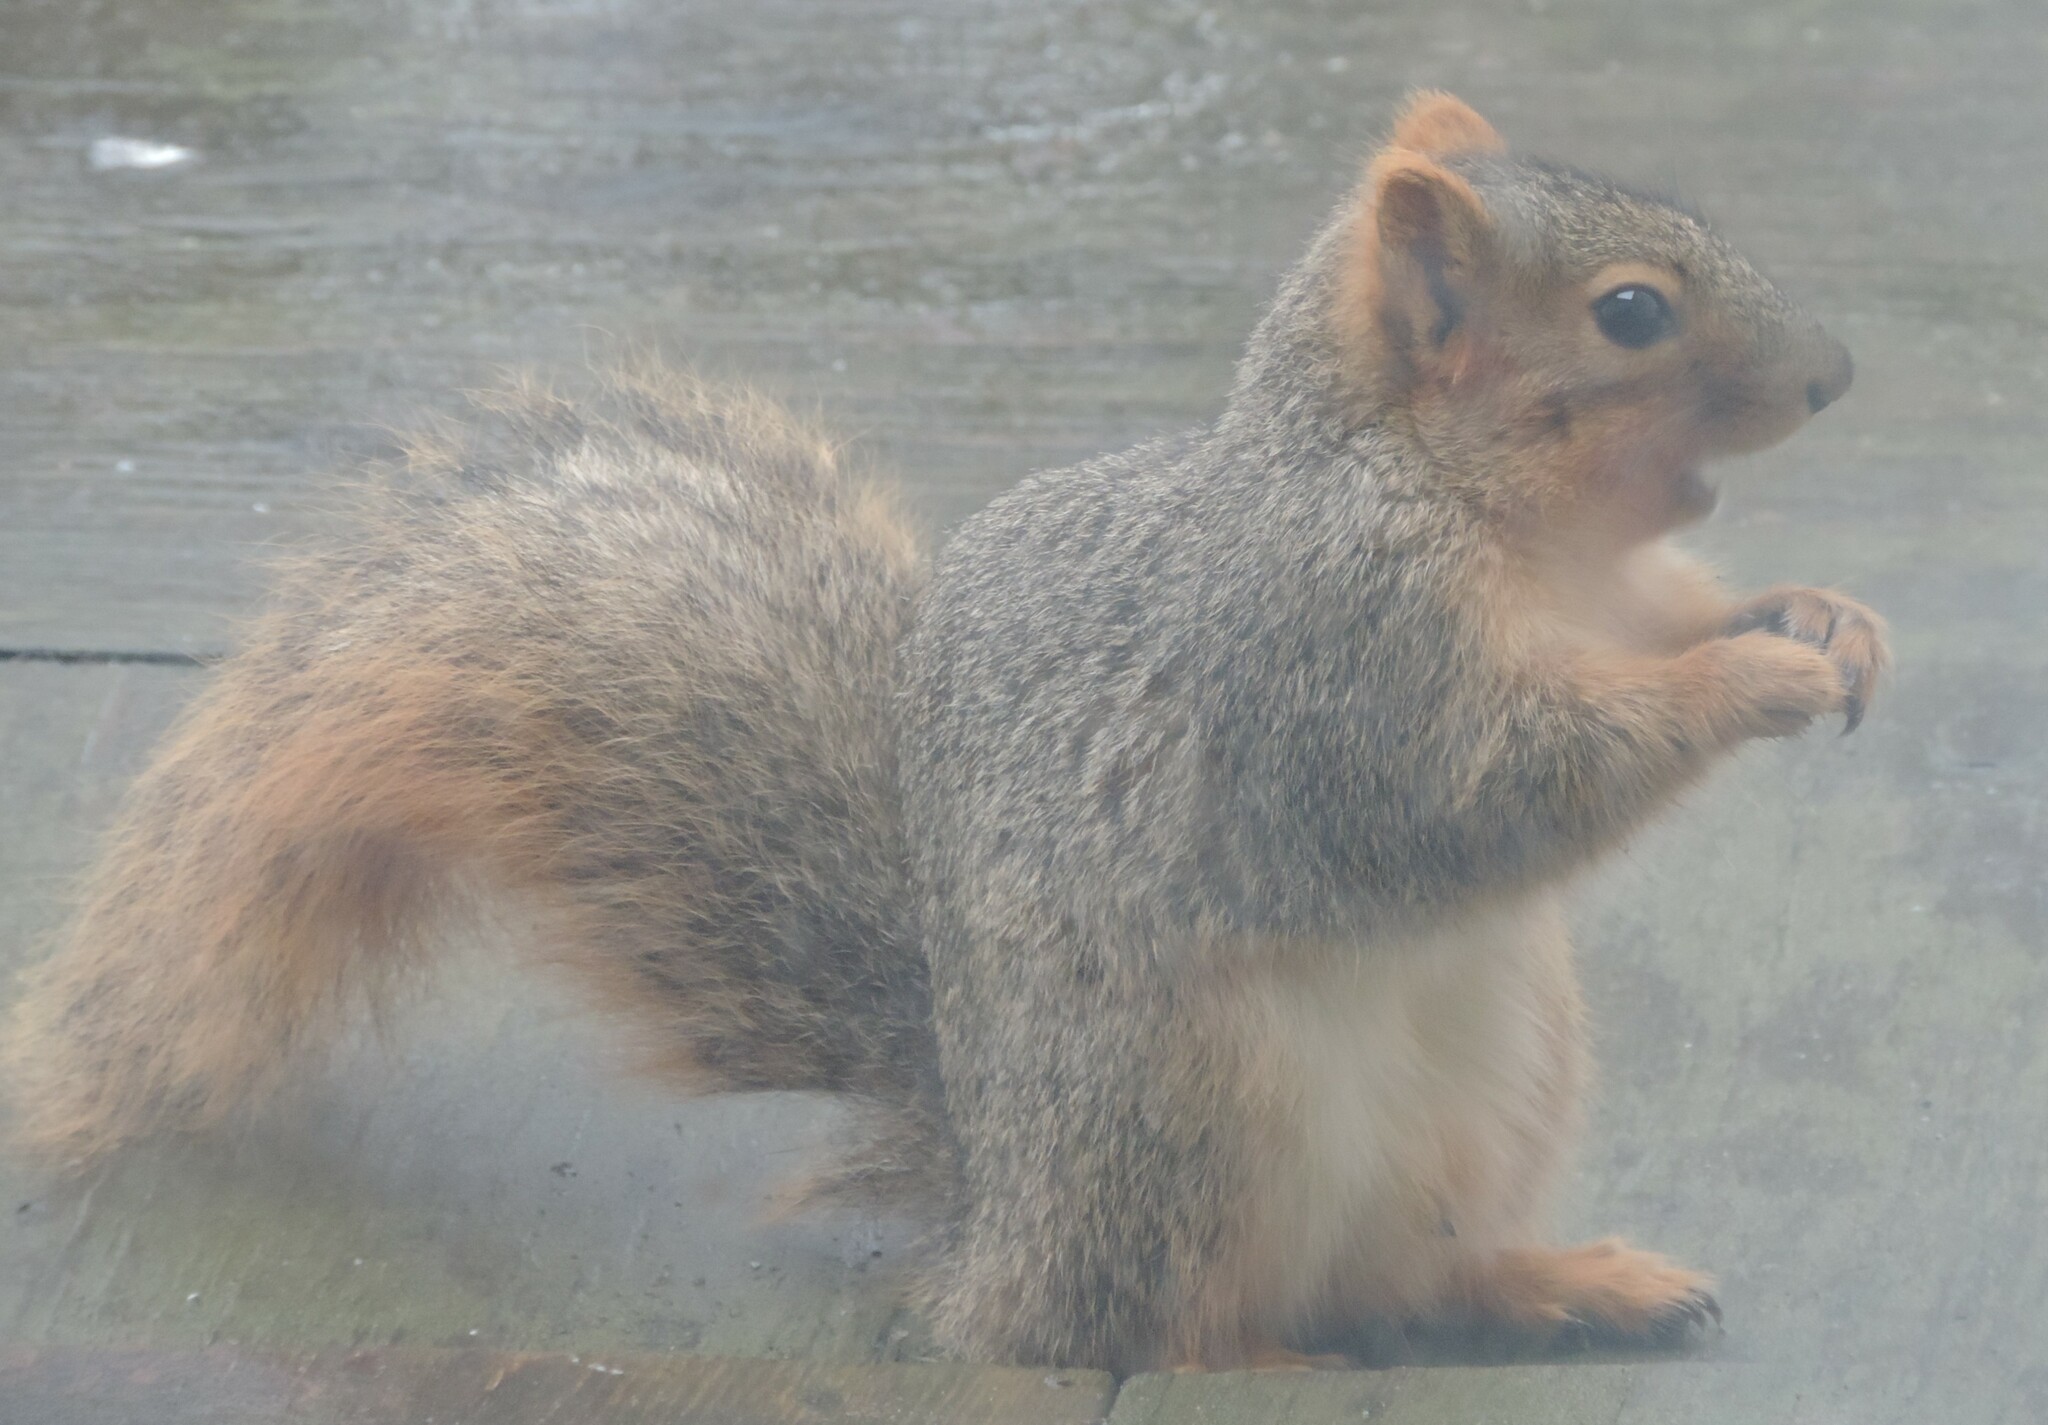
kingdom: Animalia
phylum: Chordata
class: Mammalia
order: Rodentia
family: Sciuridae
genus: Sciurus
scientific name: Sciurus niger
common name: Fox squirrel
